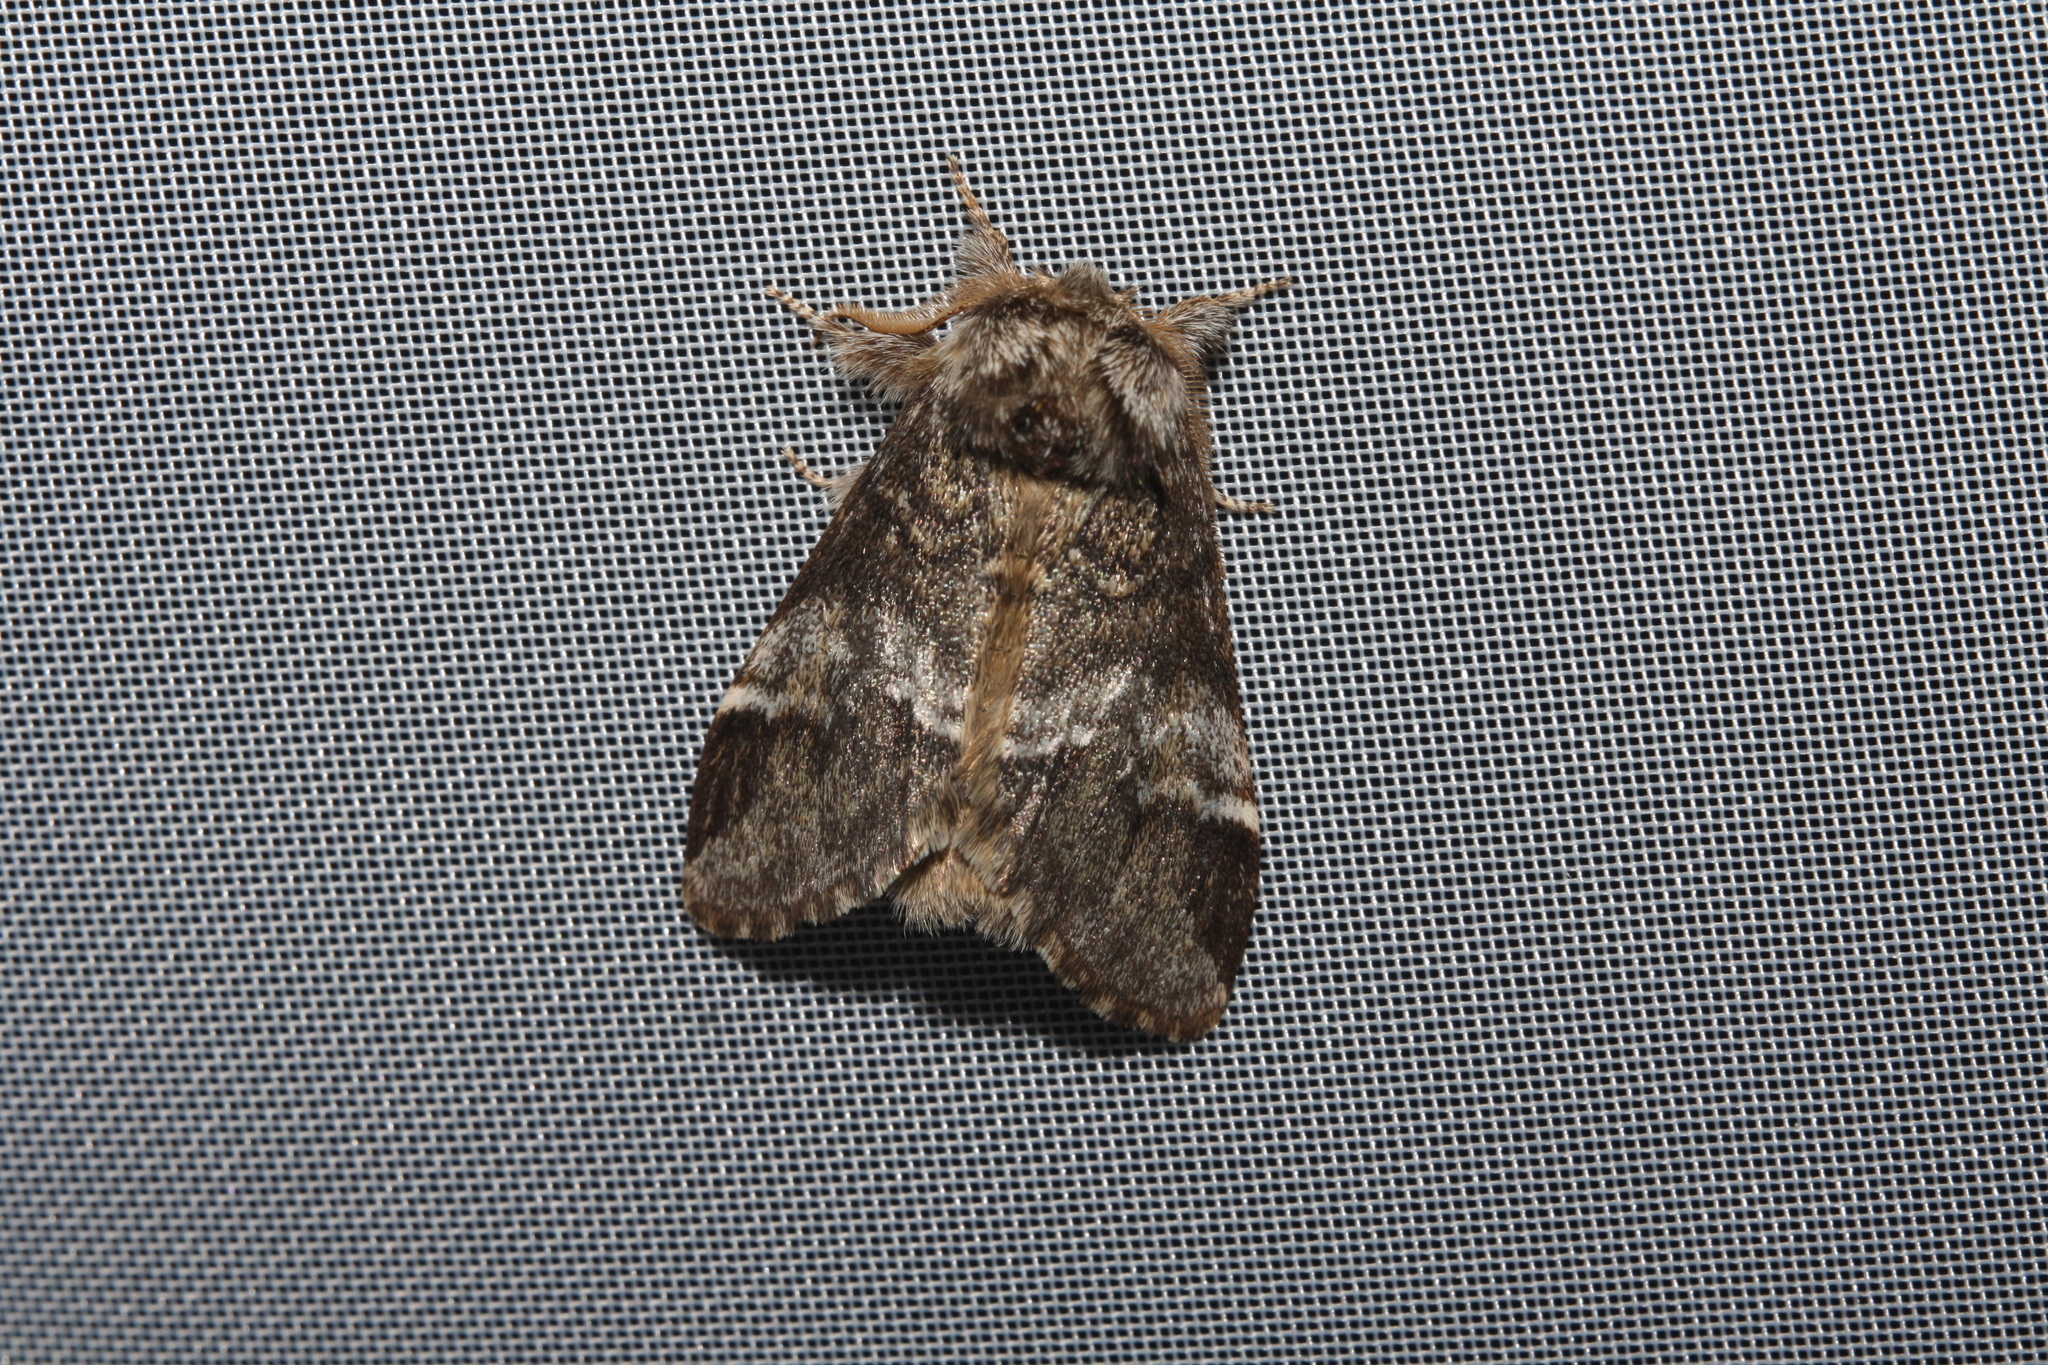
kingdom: Animalia
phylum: Arthropoda
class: Insecta
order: Lepidoptera
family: Notodontidae
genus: Drymonia
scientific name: Drymonia dodonaea
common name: Marbled brown
